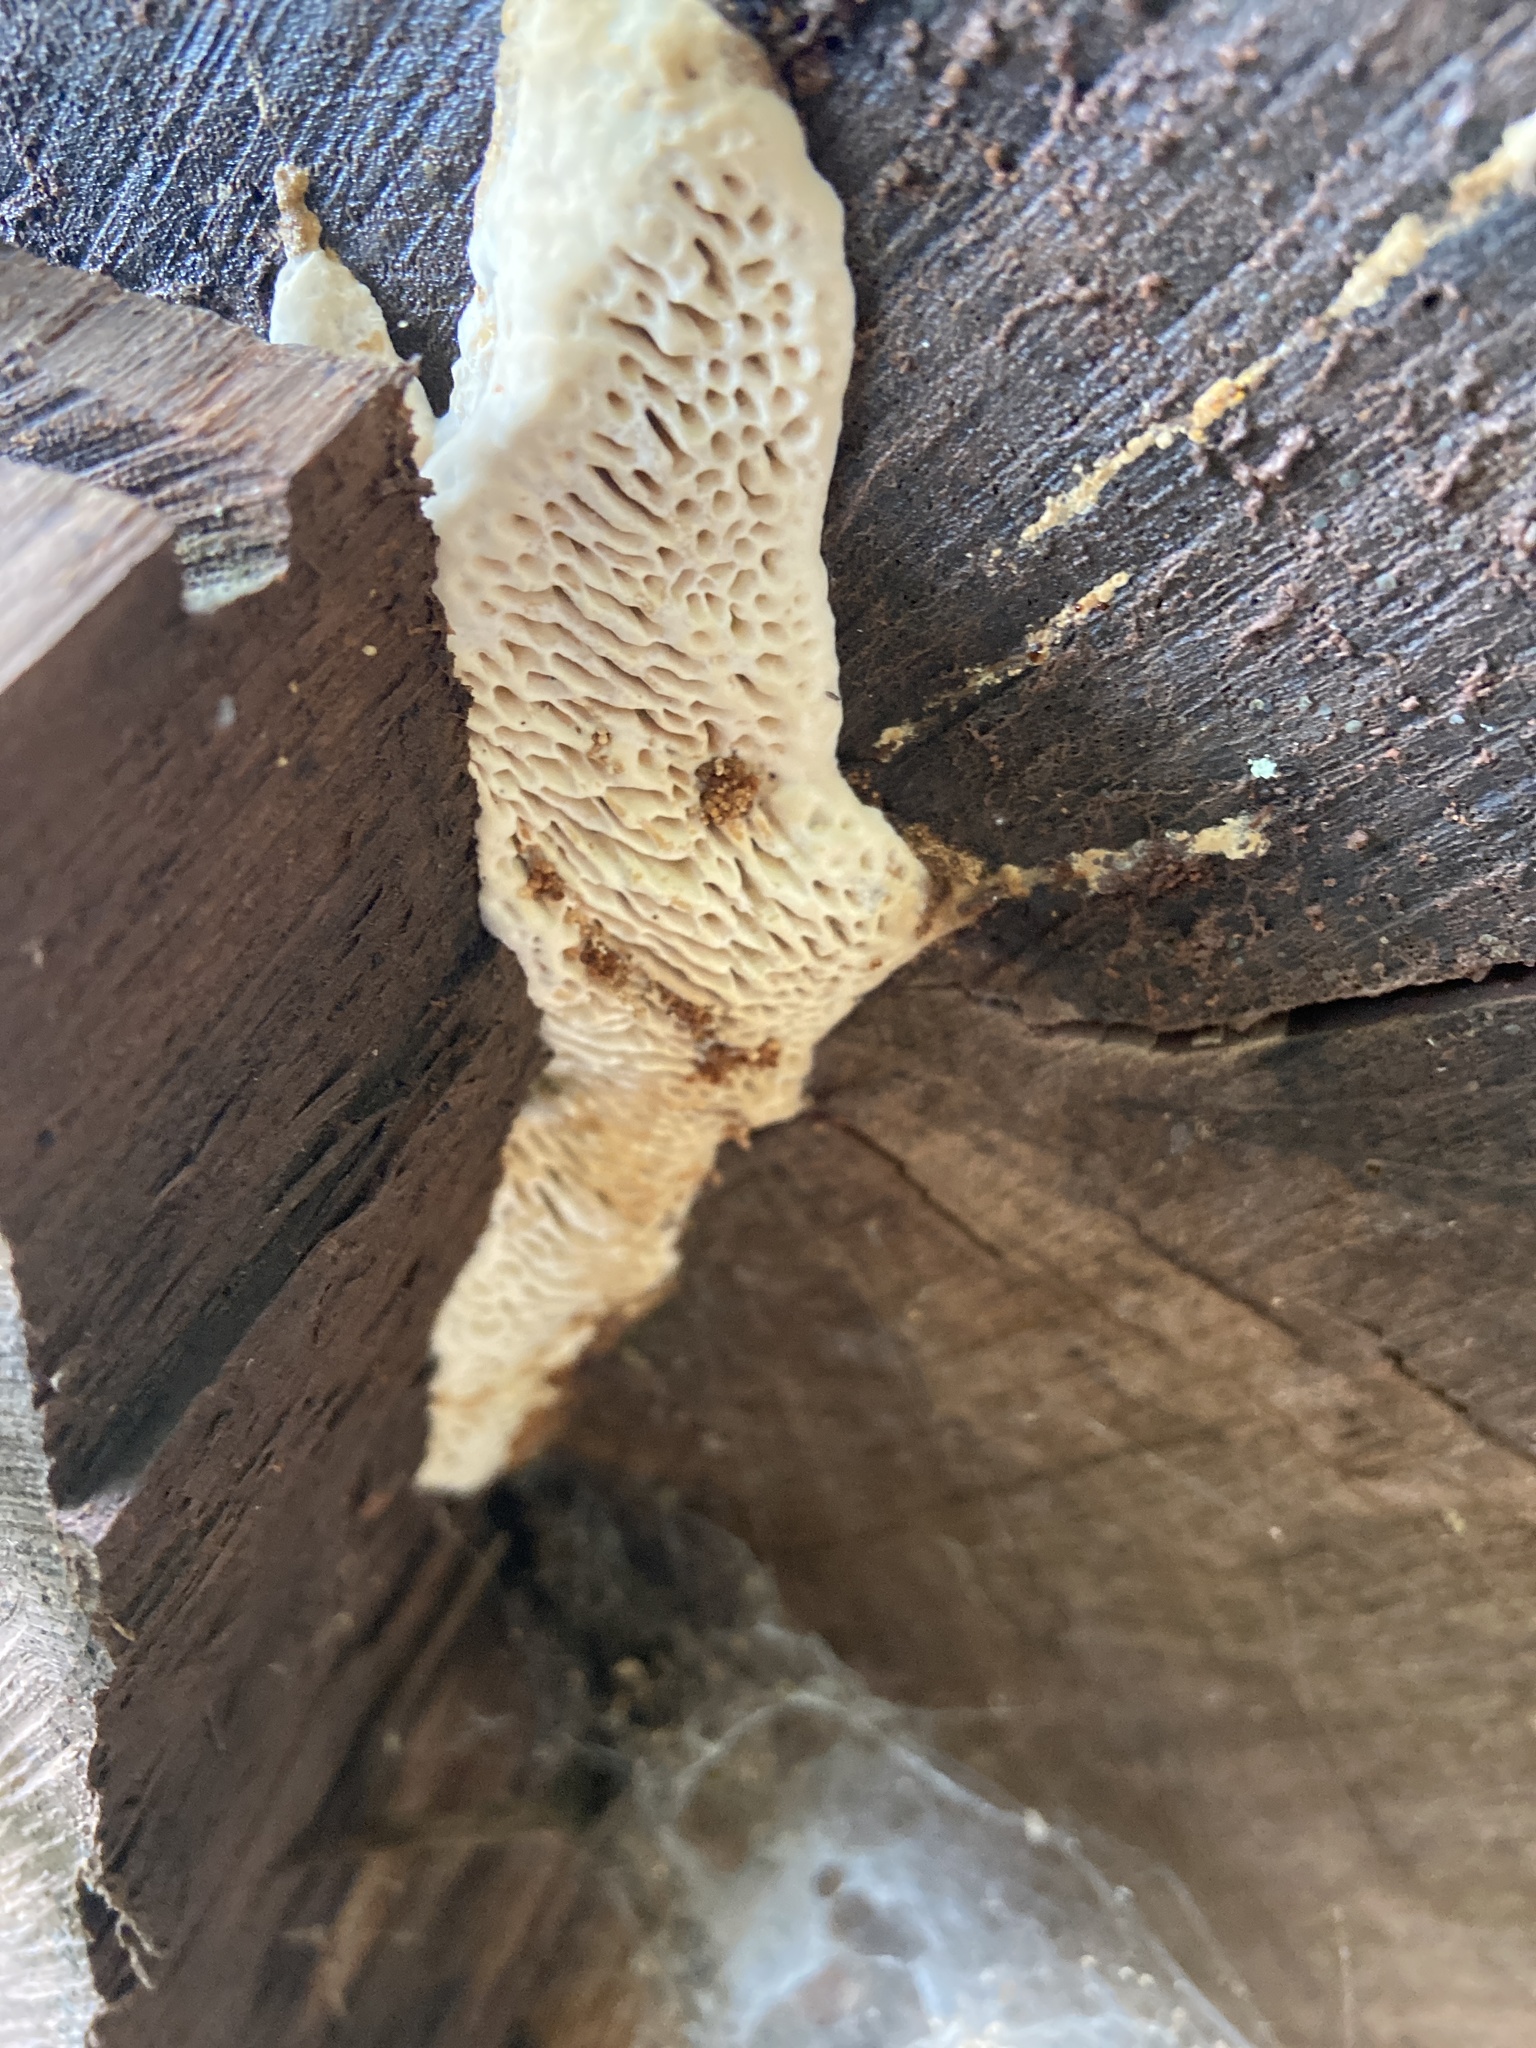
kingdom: Fungi
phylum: Basidiomycota
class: Agaricomycetes
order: Polyporales
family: Fomitopsidaceae
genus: Fomitopsis
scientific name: Fomitopsis
